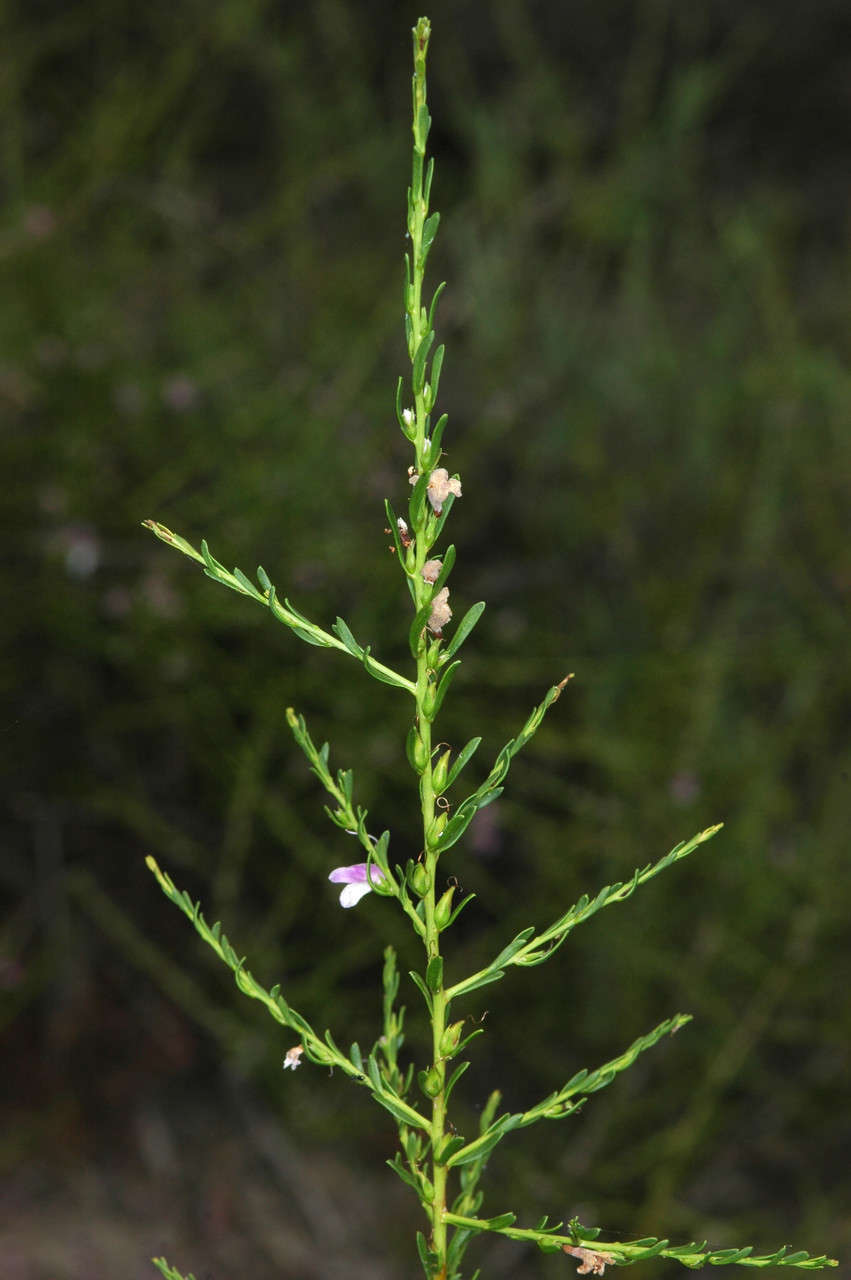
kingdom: Plantae
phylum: Tracheophyta
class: Magnoliopsida
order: Lamiales
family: Scrophulariaceae
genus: Eremophila
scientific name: Eremophila divaricata
